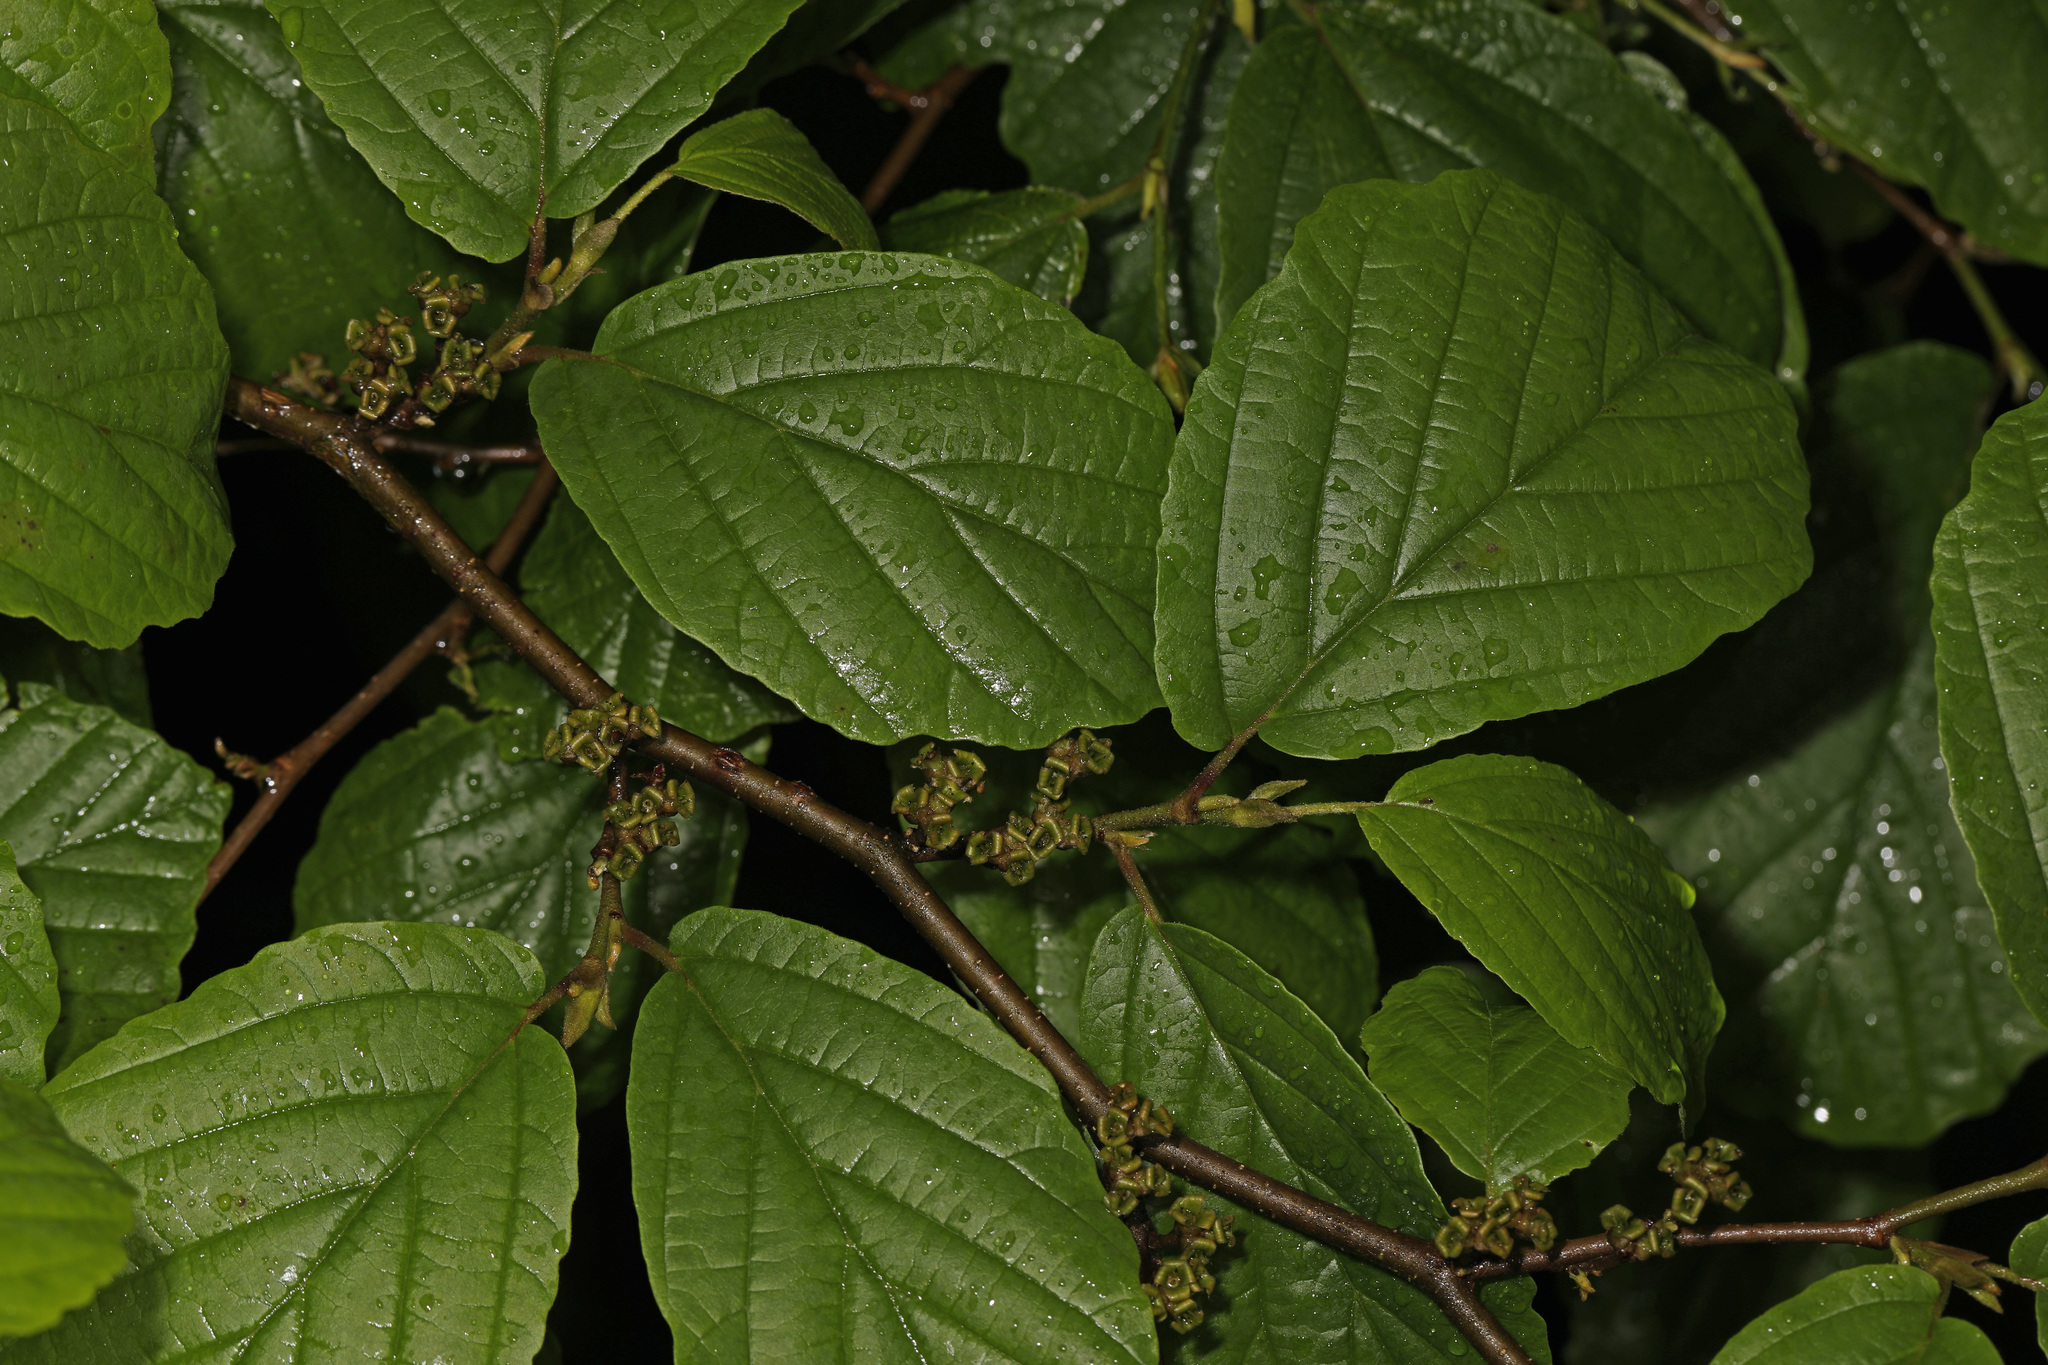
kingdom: Plantae
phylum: Tracheophyta
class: Magnoliopsida
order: Saxifragales
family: Hamamelidaceae
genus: Hamamelis
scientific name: Hamamelis virginiana
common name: Witch-hazel
